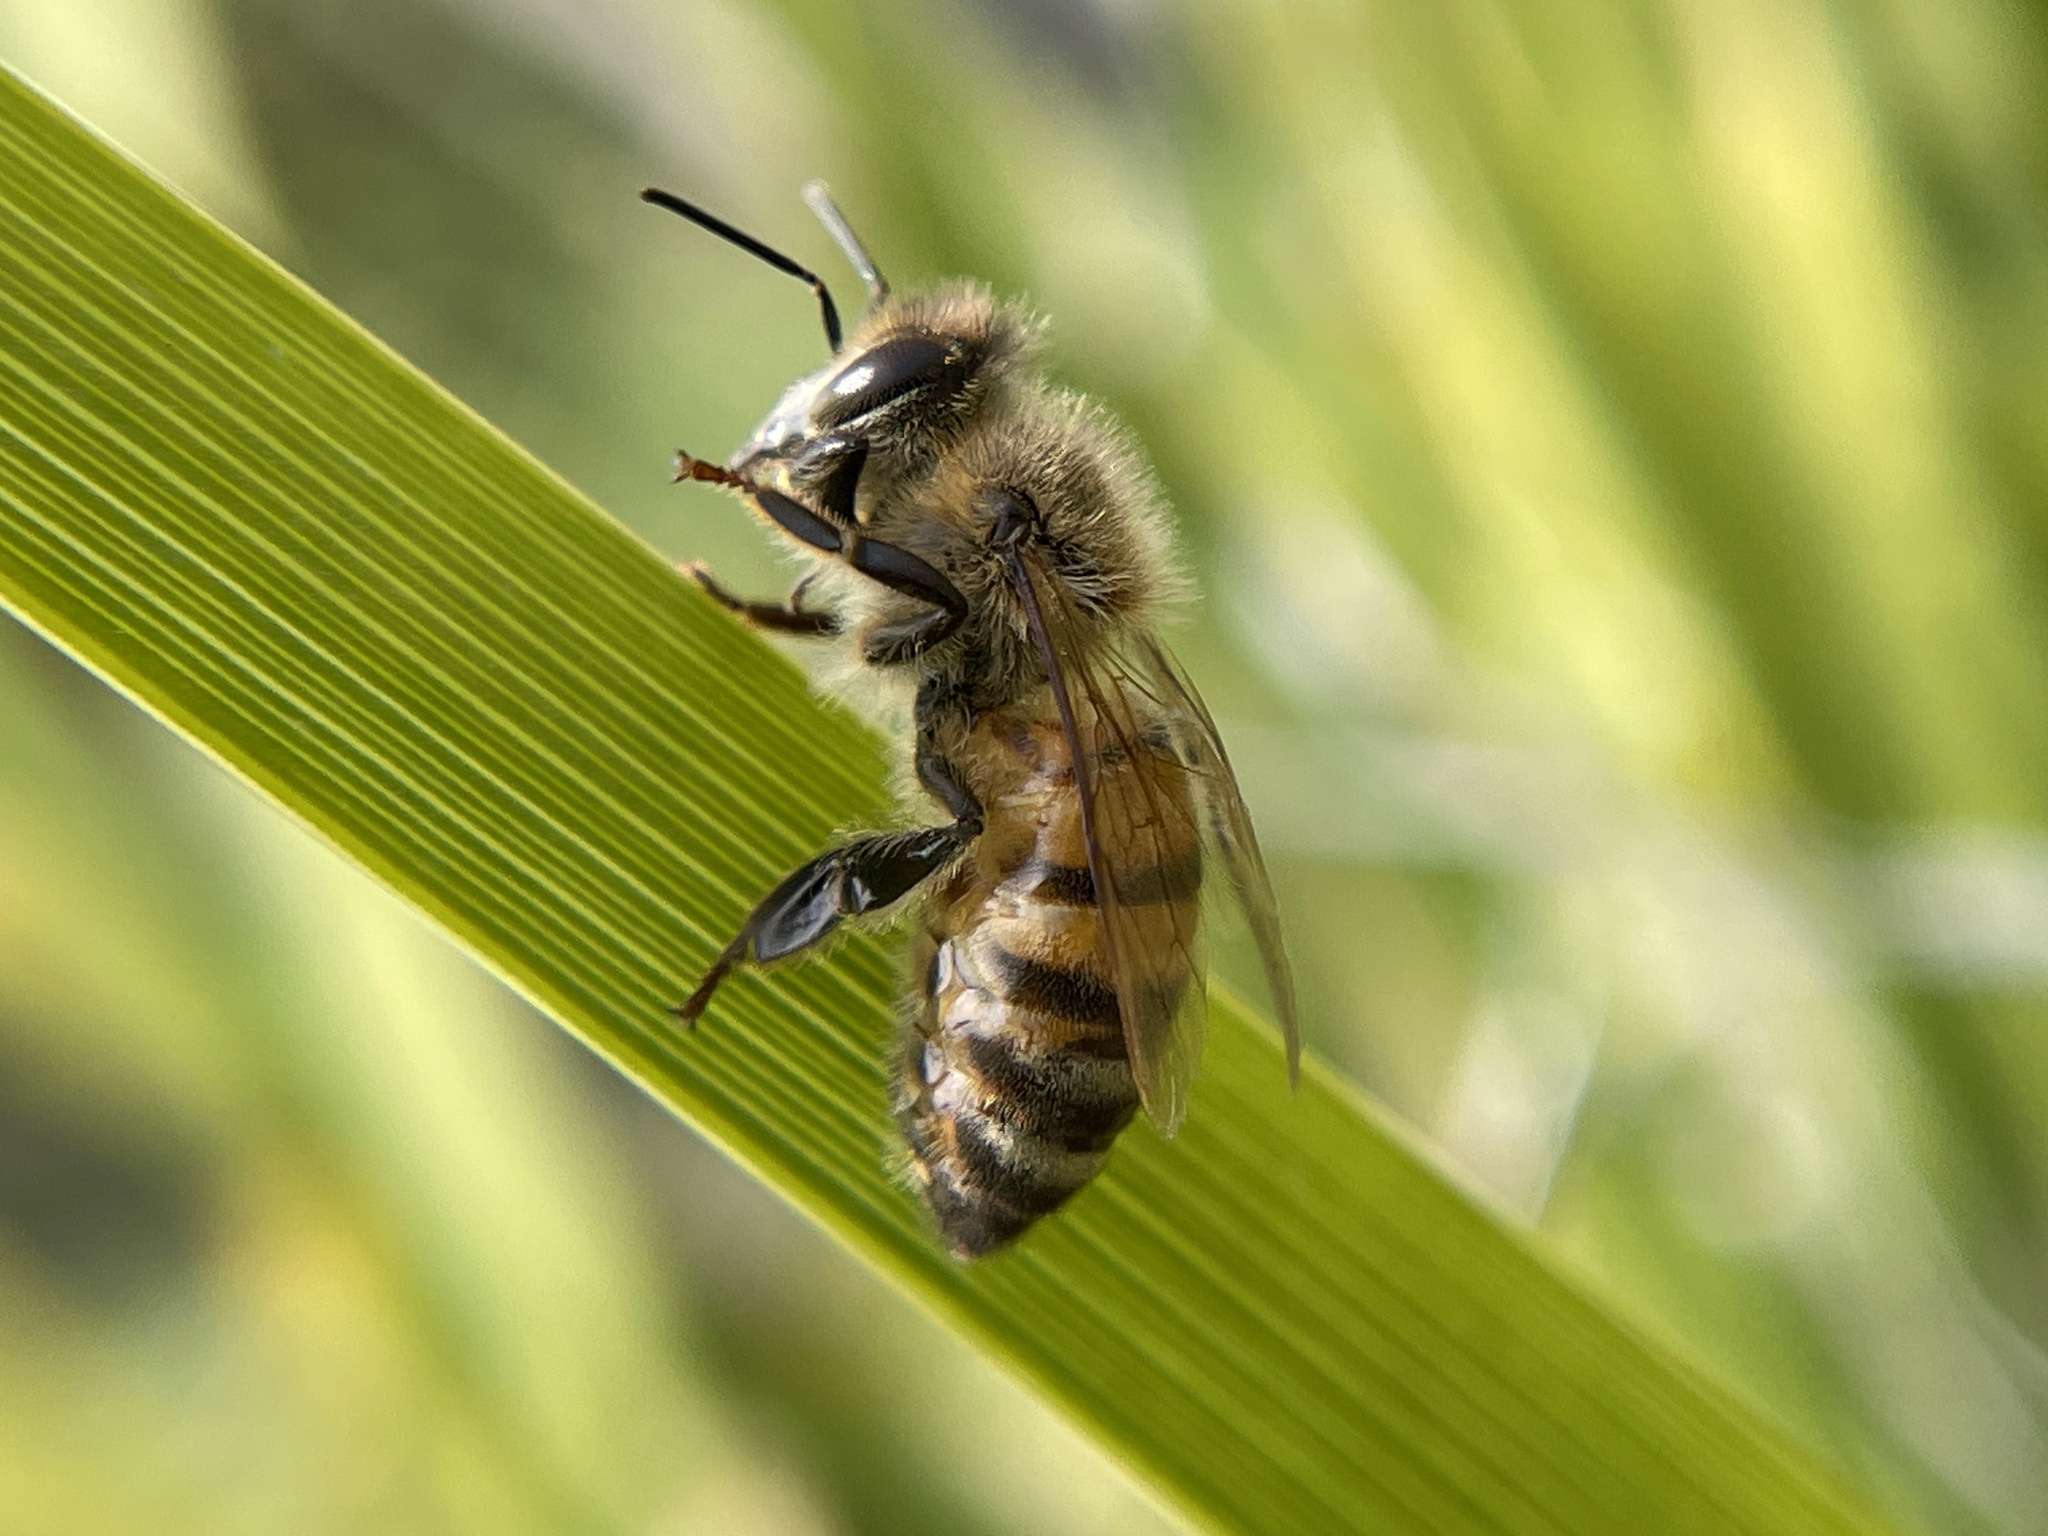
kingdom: Animalia
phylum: Arthropoda
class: Insecta
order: Hymenoptera
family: Apidae
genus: Apis
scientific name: Apis mellifera
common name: Honey bee
